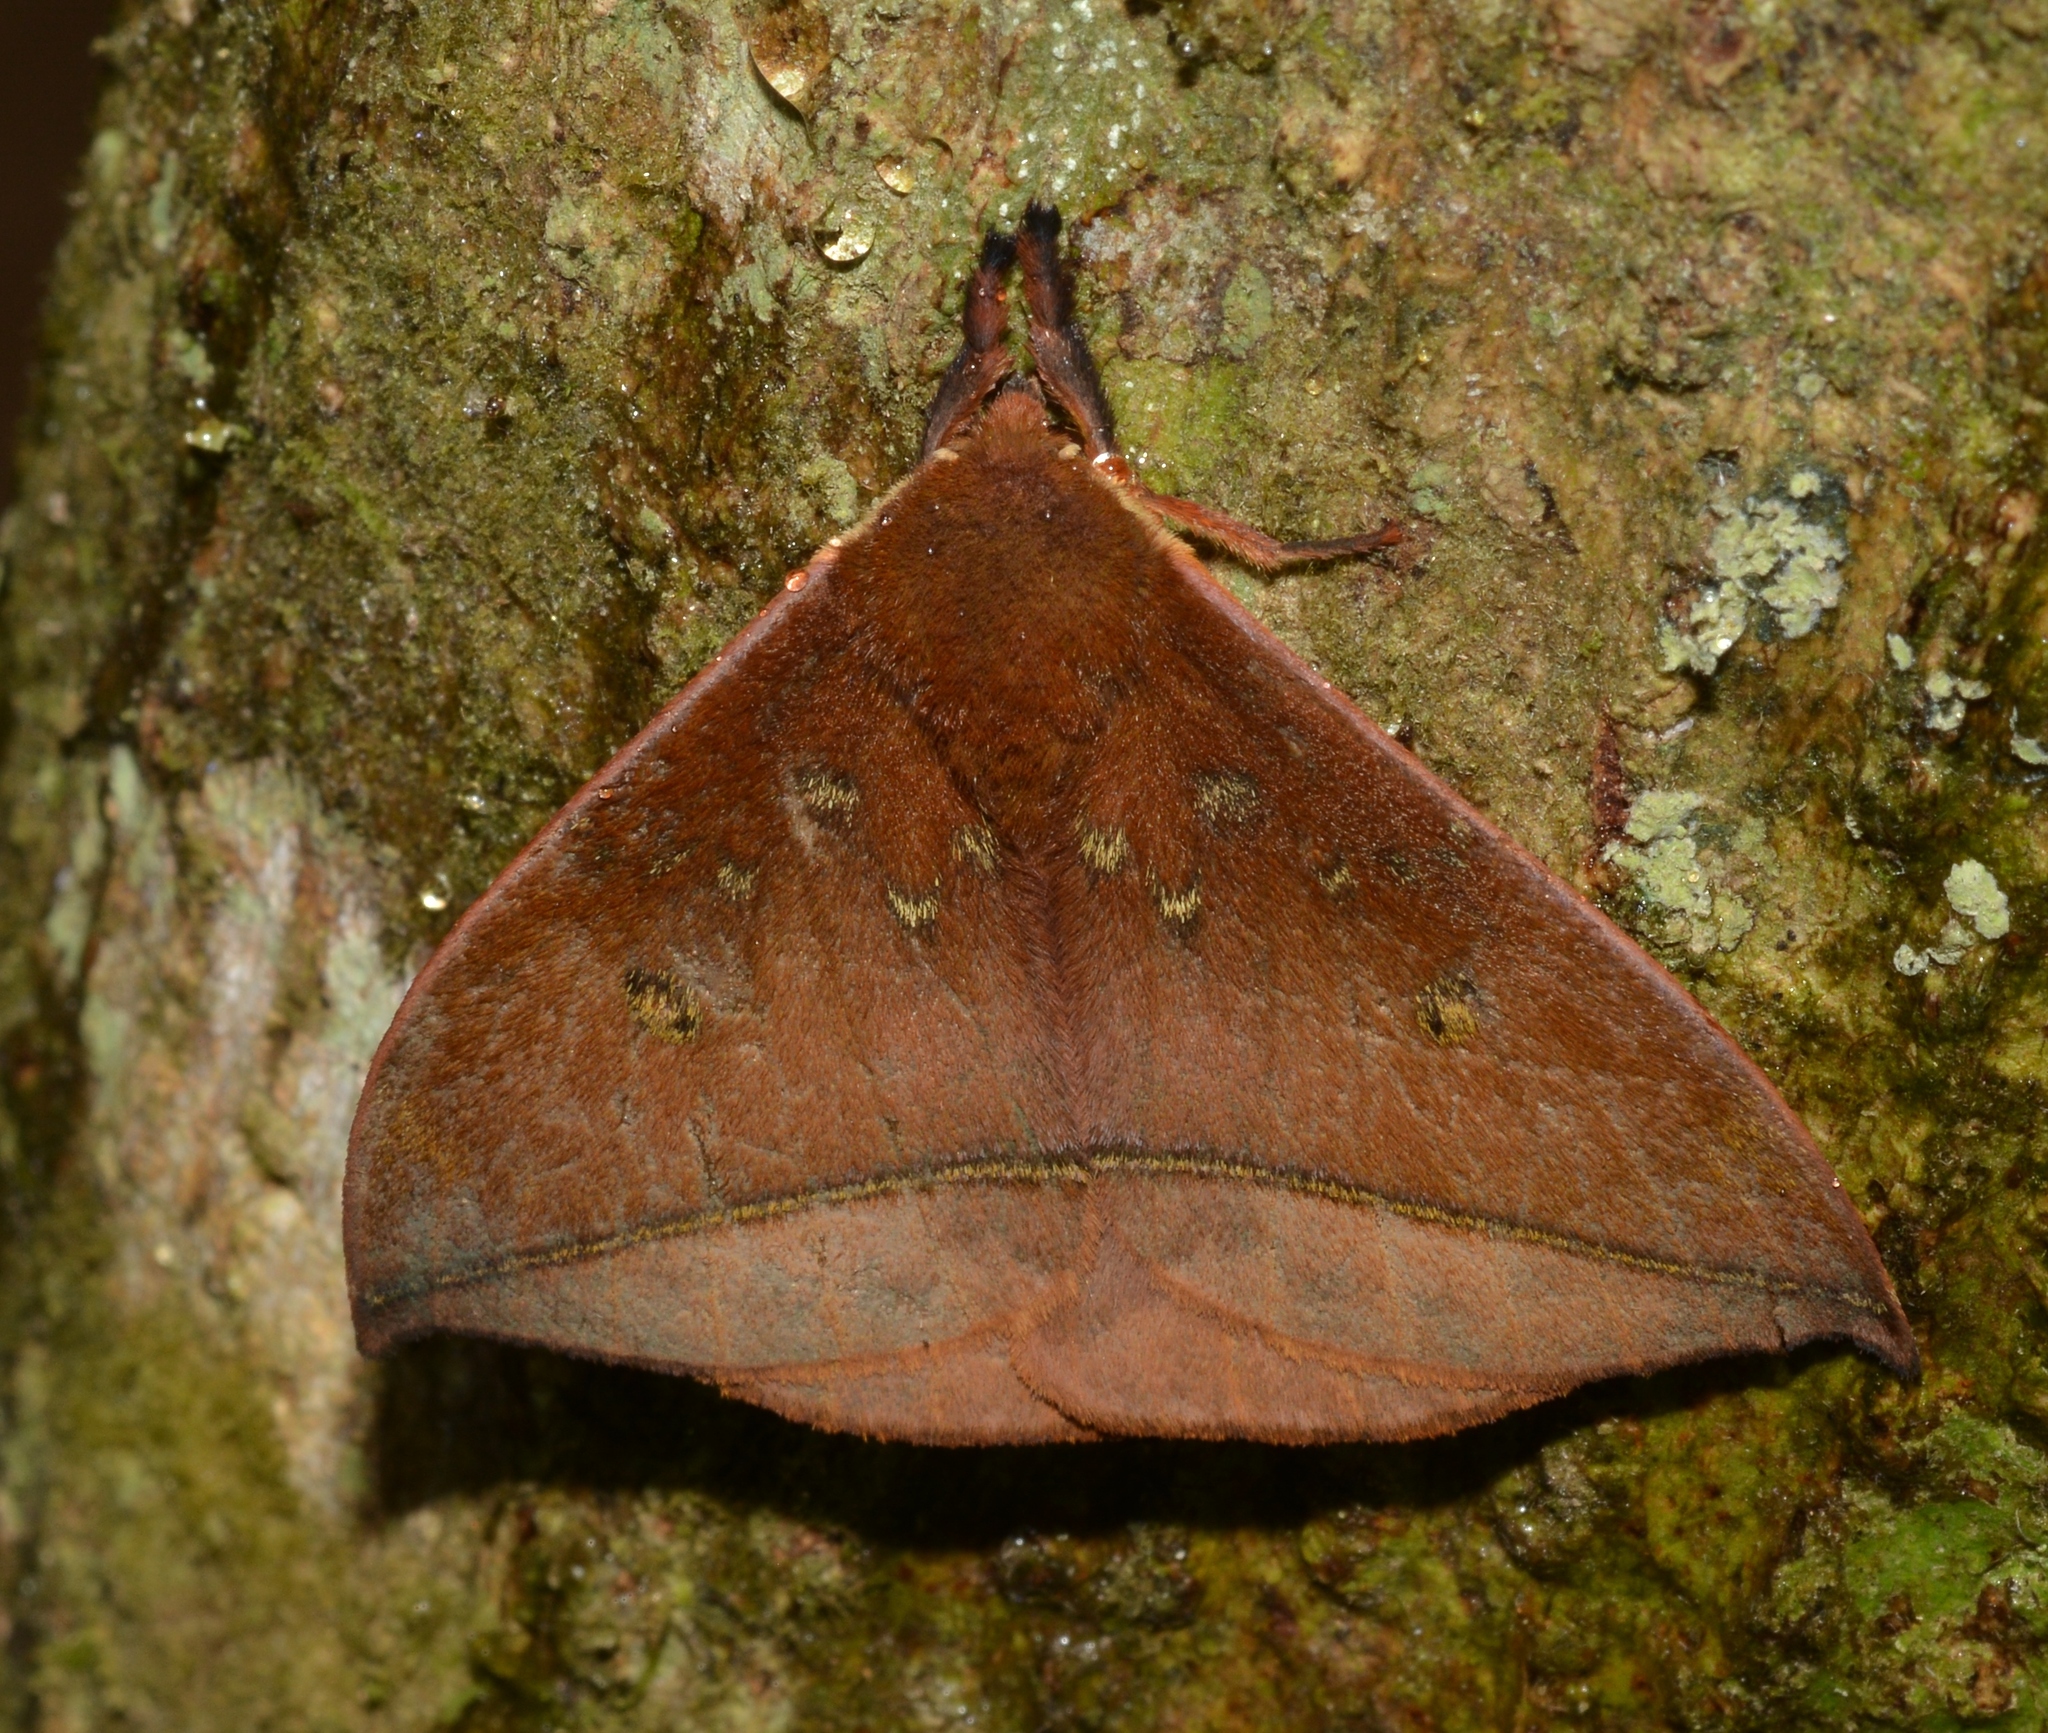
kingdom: Animalia
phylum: Arthropoda
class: Insecta
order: Lepidoptera
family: Saturniidae
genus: Gamelia
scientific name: Gamelia rindgei
